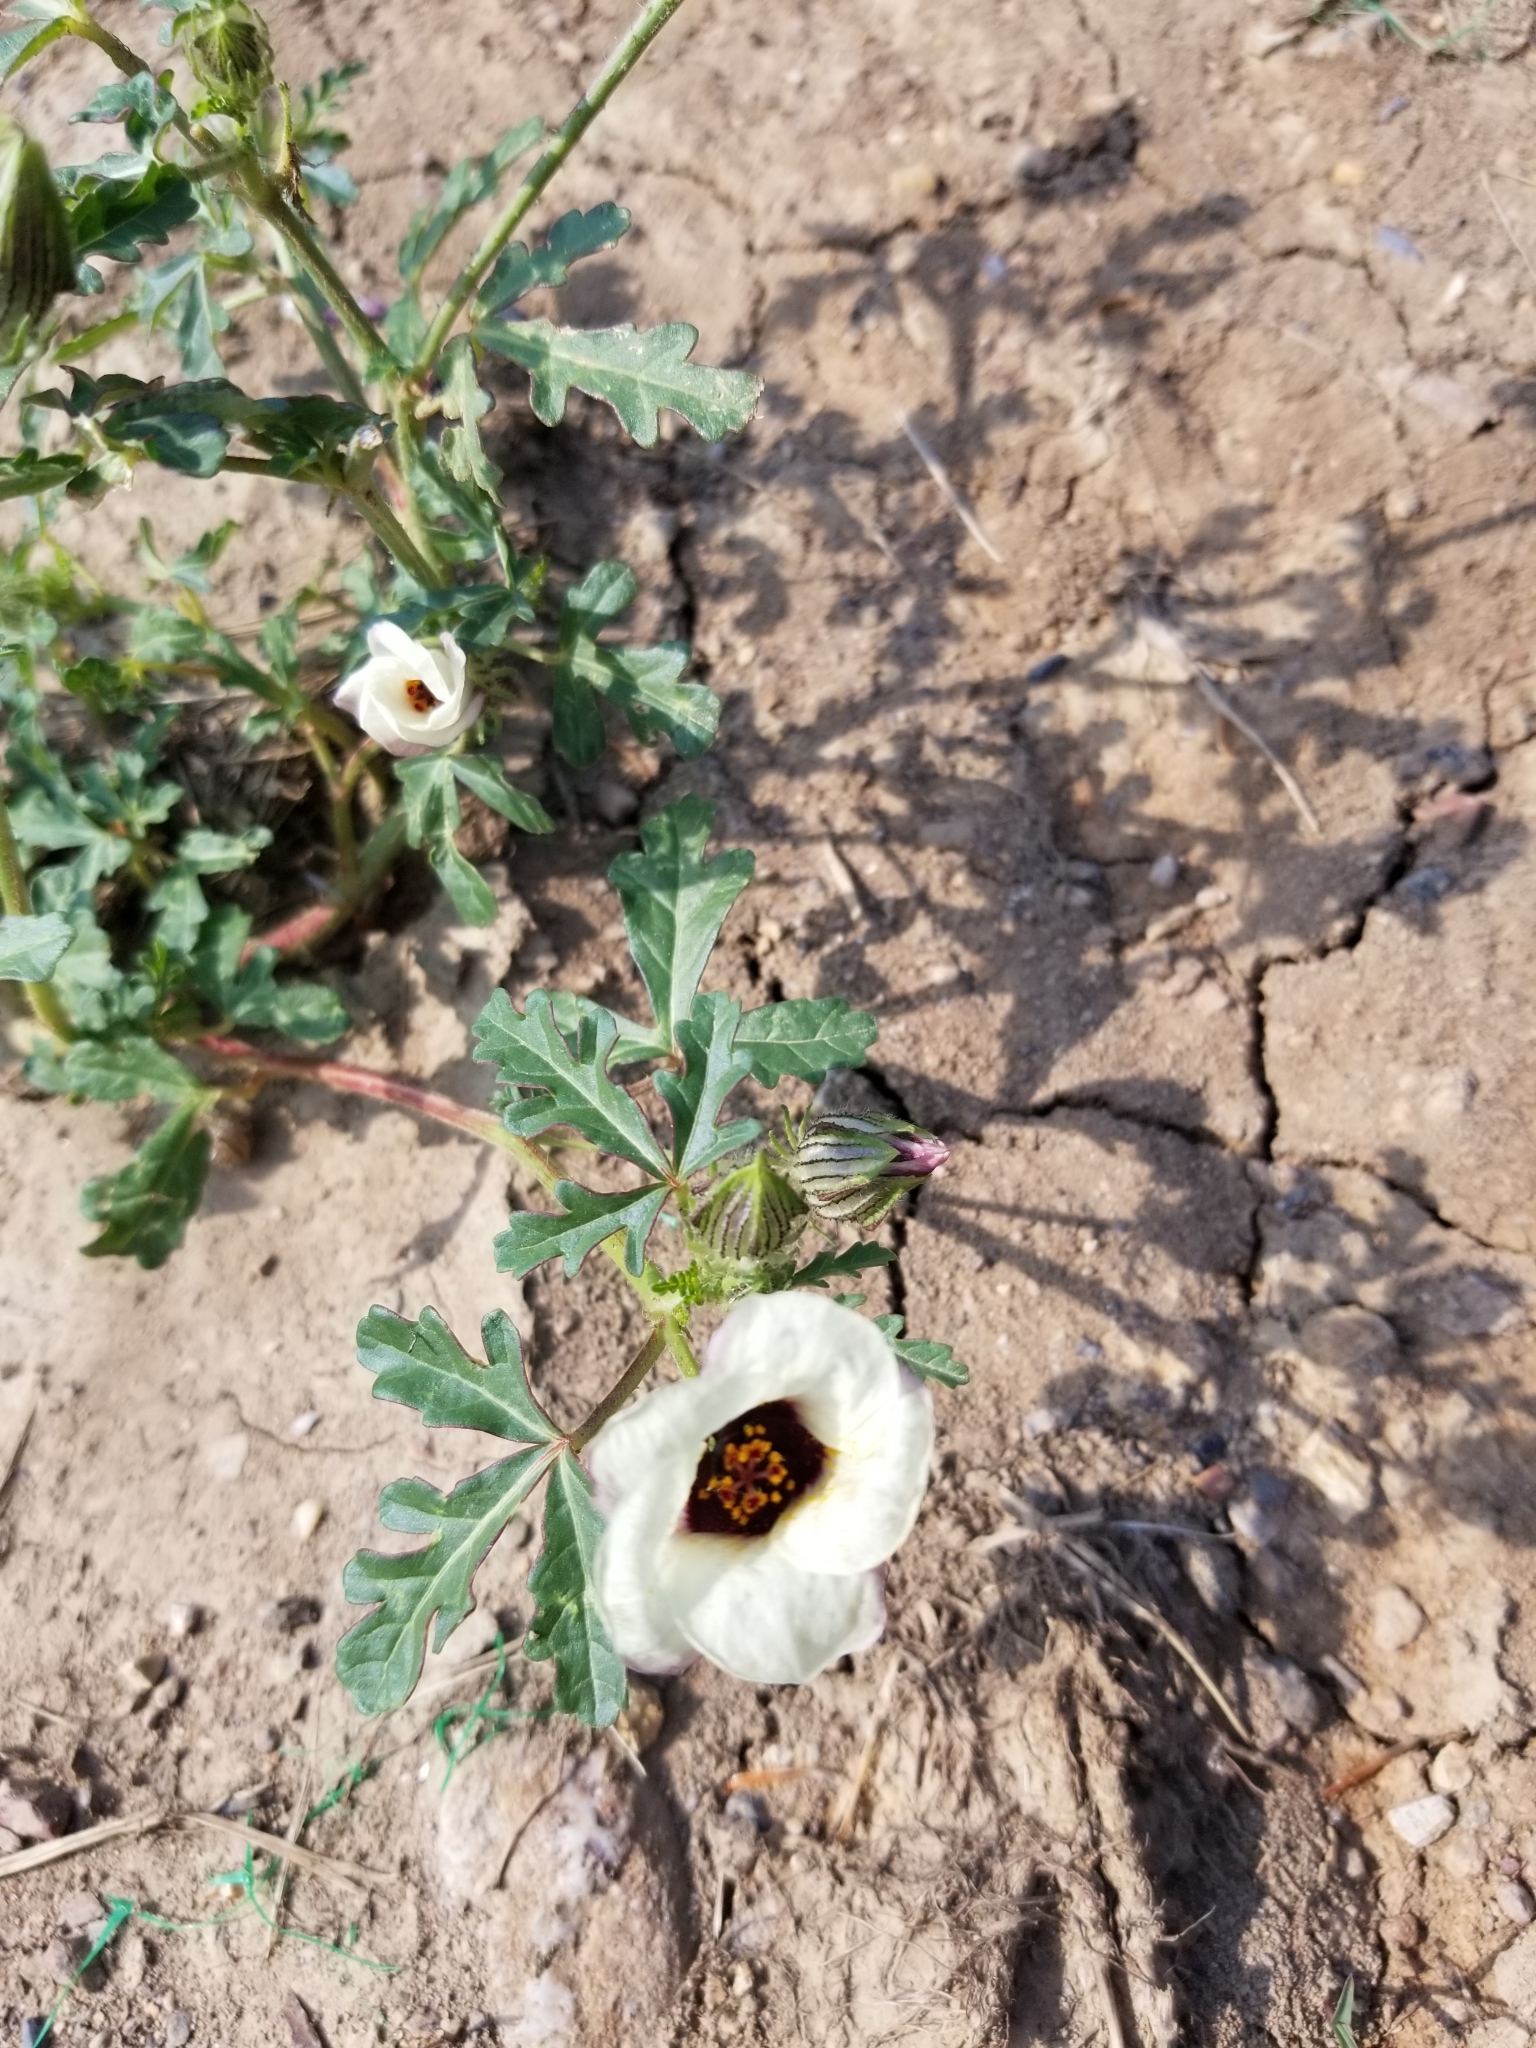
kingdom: Plantae
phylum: Tracheophyta
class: Magnoliopsida
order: Malvales
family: Malvaceae
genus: Hibiscus
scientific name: Hibiscus trionum
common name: Bladder ketmia
